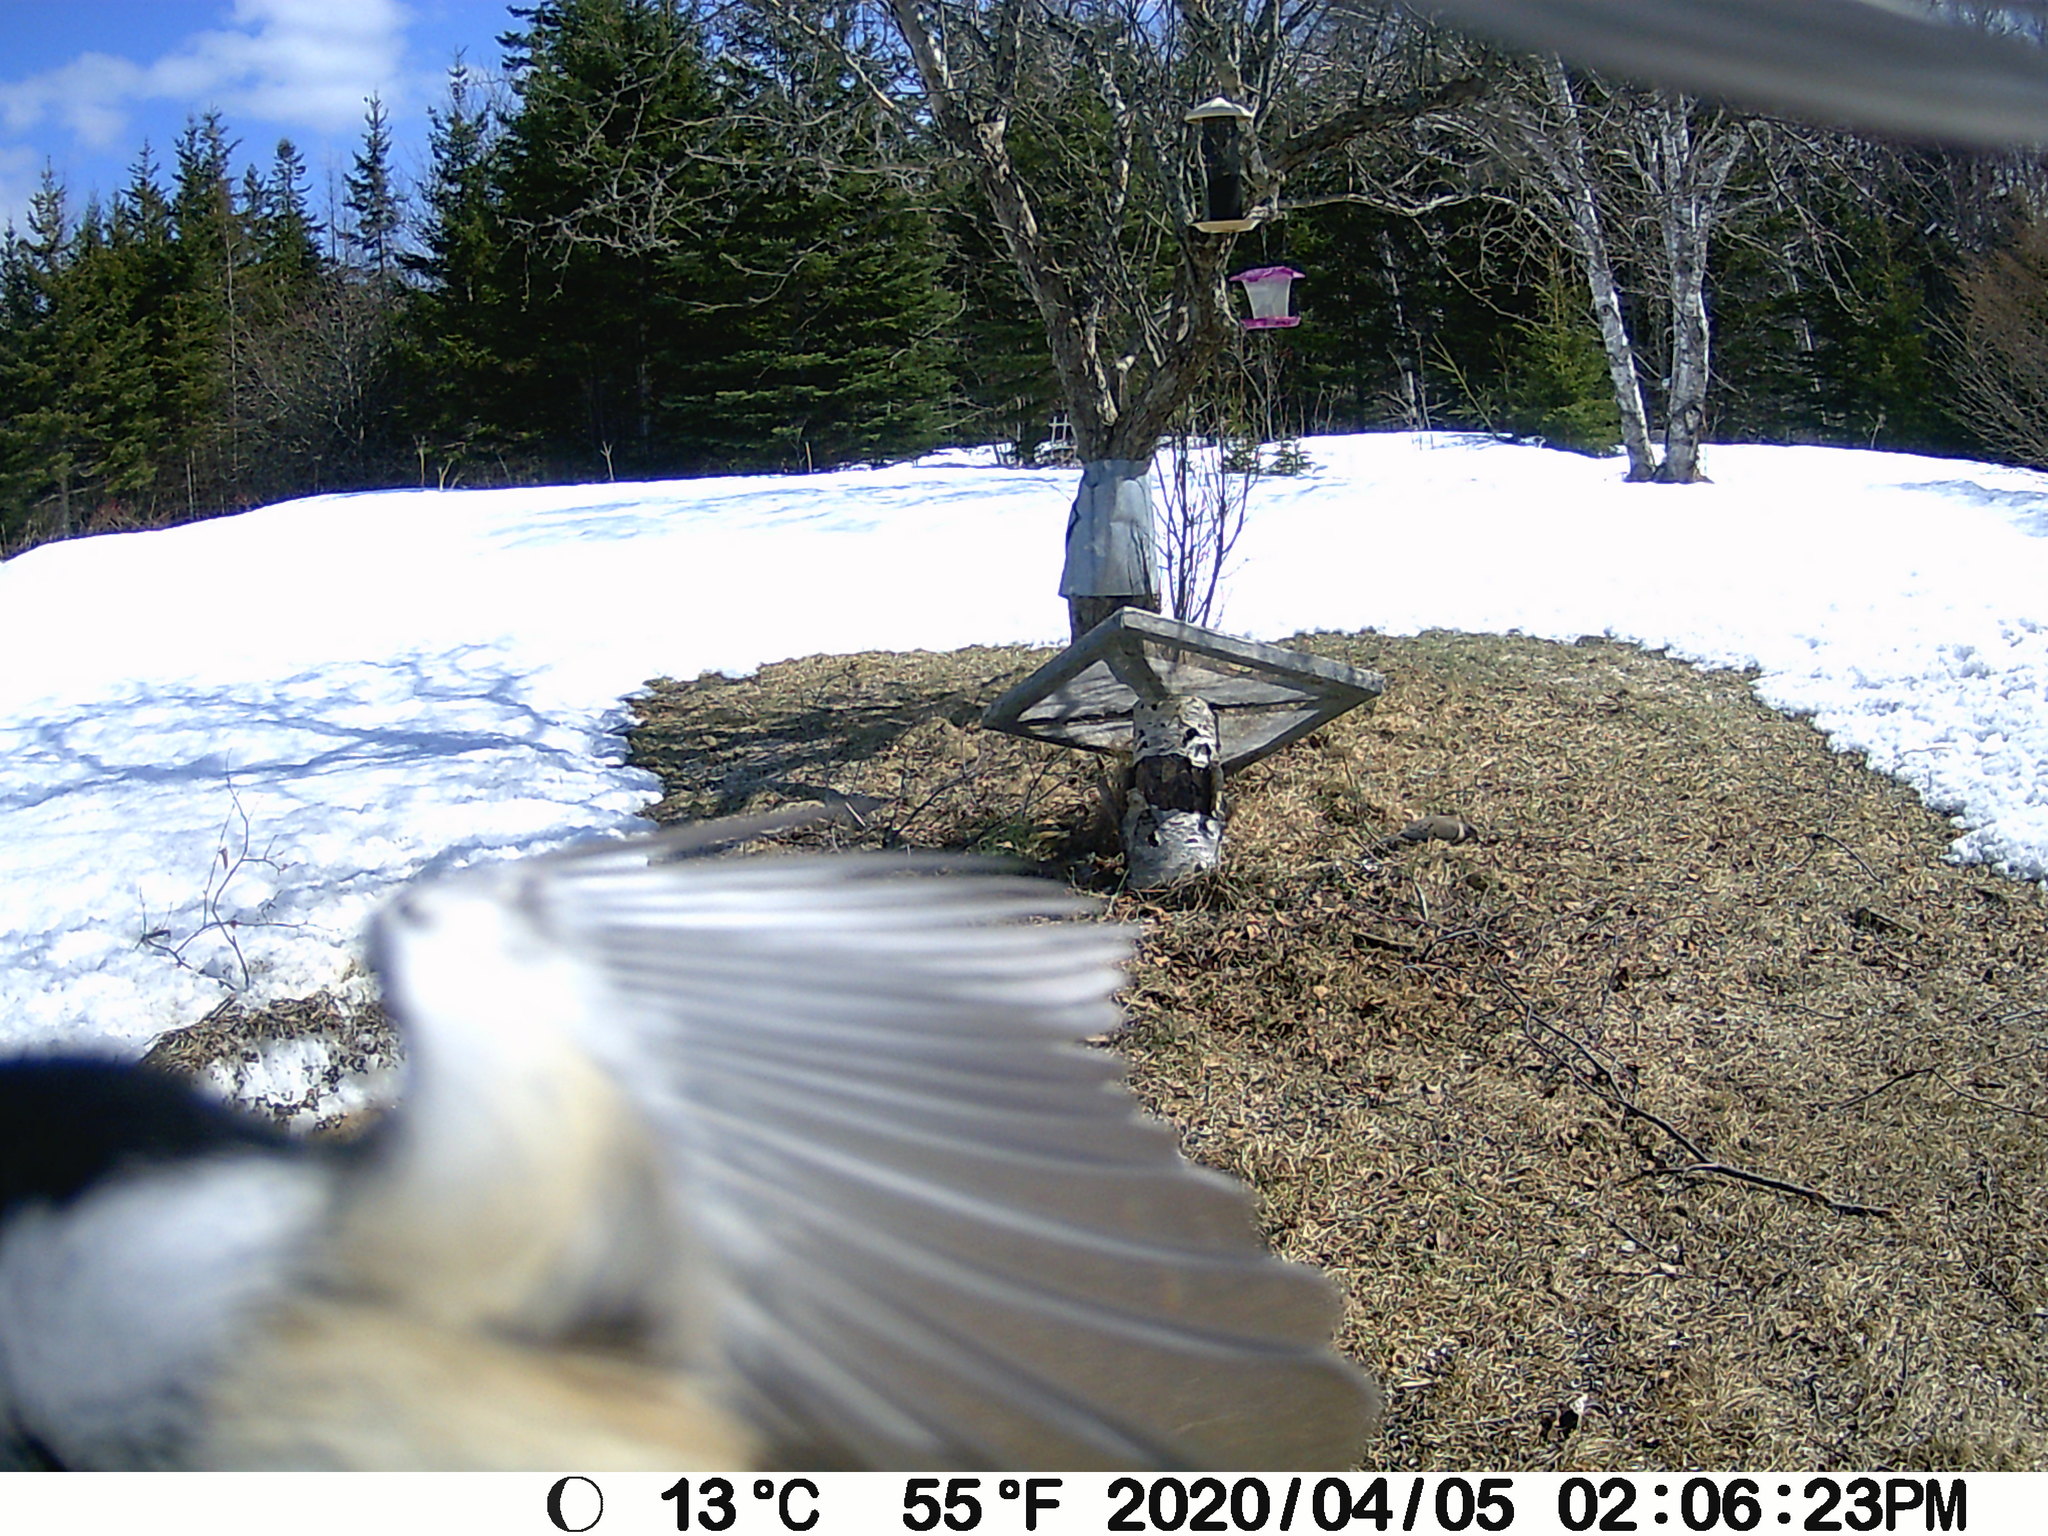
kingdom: Animalia
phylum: Chordata
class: Aves
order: Passeriformes
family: Paridae
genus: Poecile
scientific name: Poecile atricapillus
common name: Black-capped chickadee
